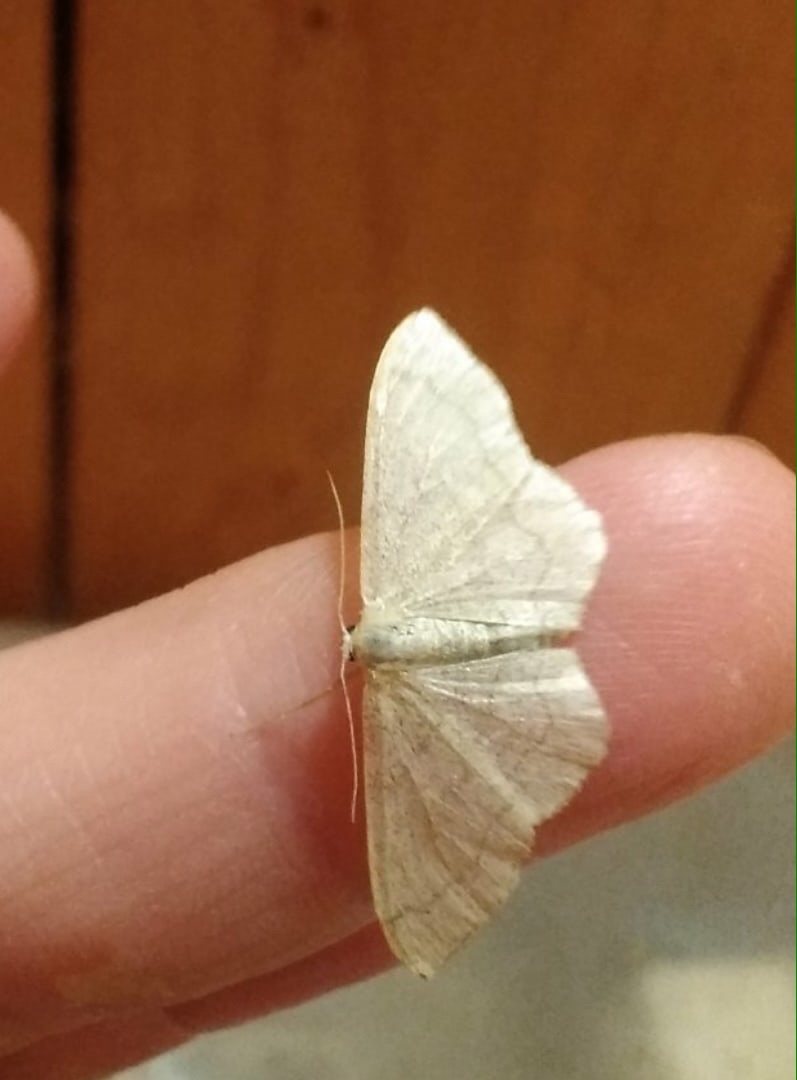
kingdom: Animalia
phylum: Arthropoda
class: Insecta
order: Lepidoptera
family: Geometridae
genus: Scopula
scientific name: Scopula ternata
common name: Smoky wave
